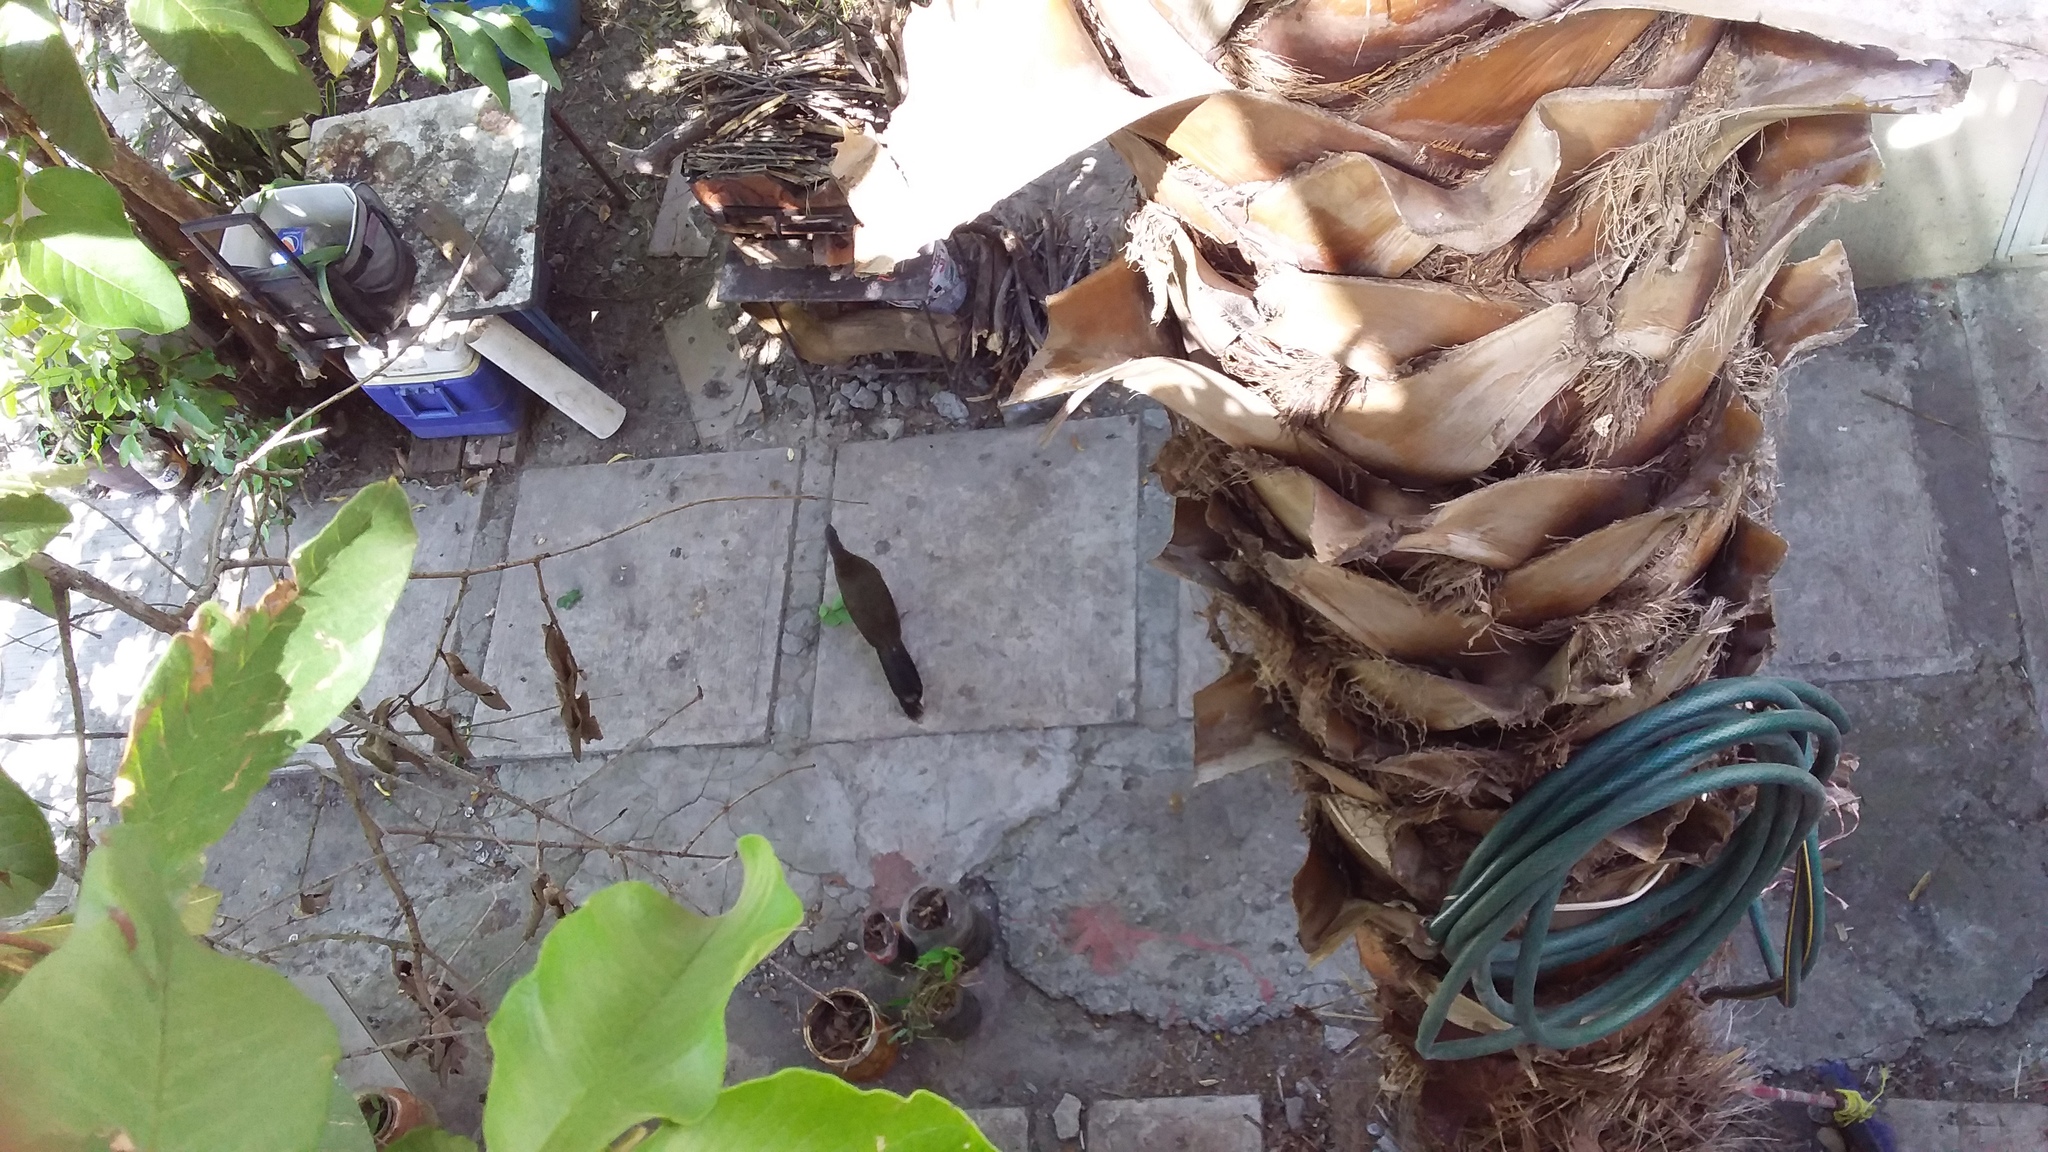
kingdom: Animalia
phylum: Chordata
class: Aves
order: Galliformes
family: Cracidae
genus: Ortalis
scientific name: Ortalis vetula
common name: Plain chachalaca
